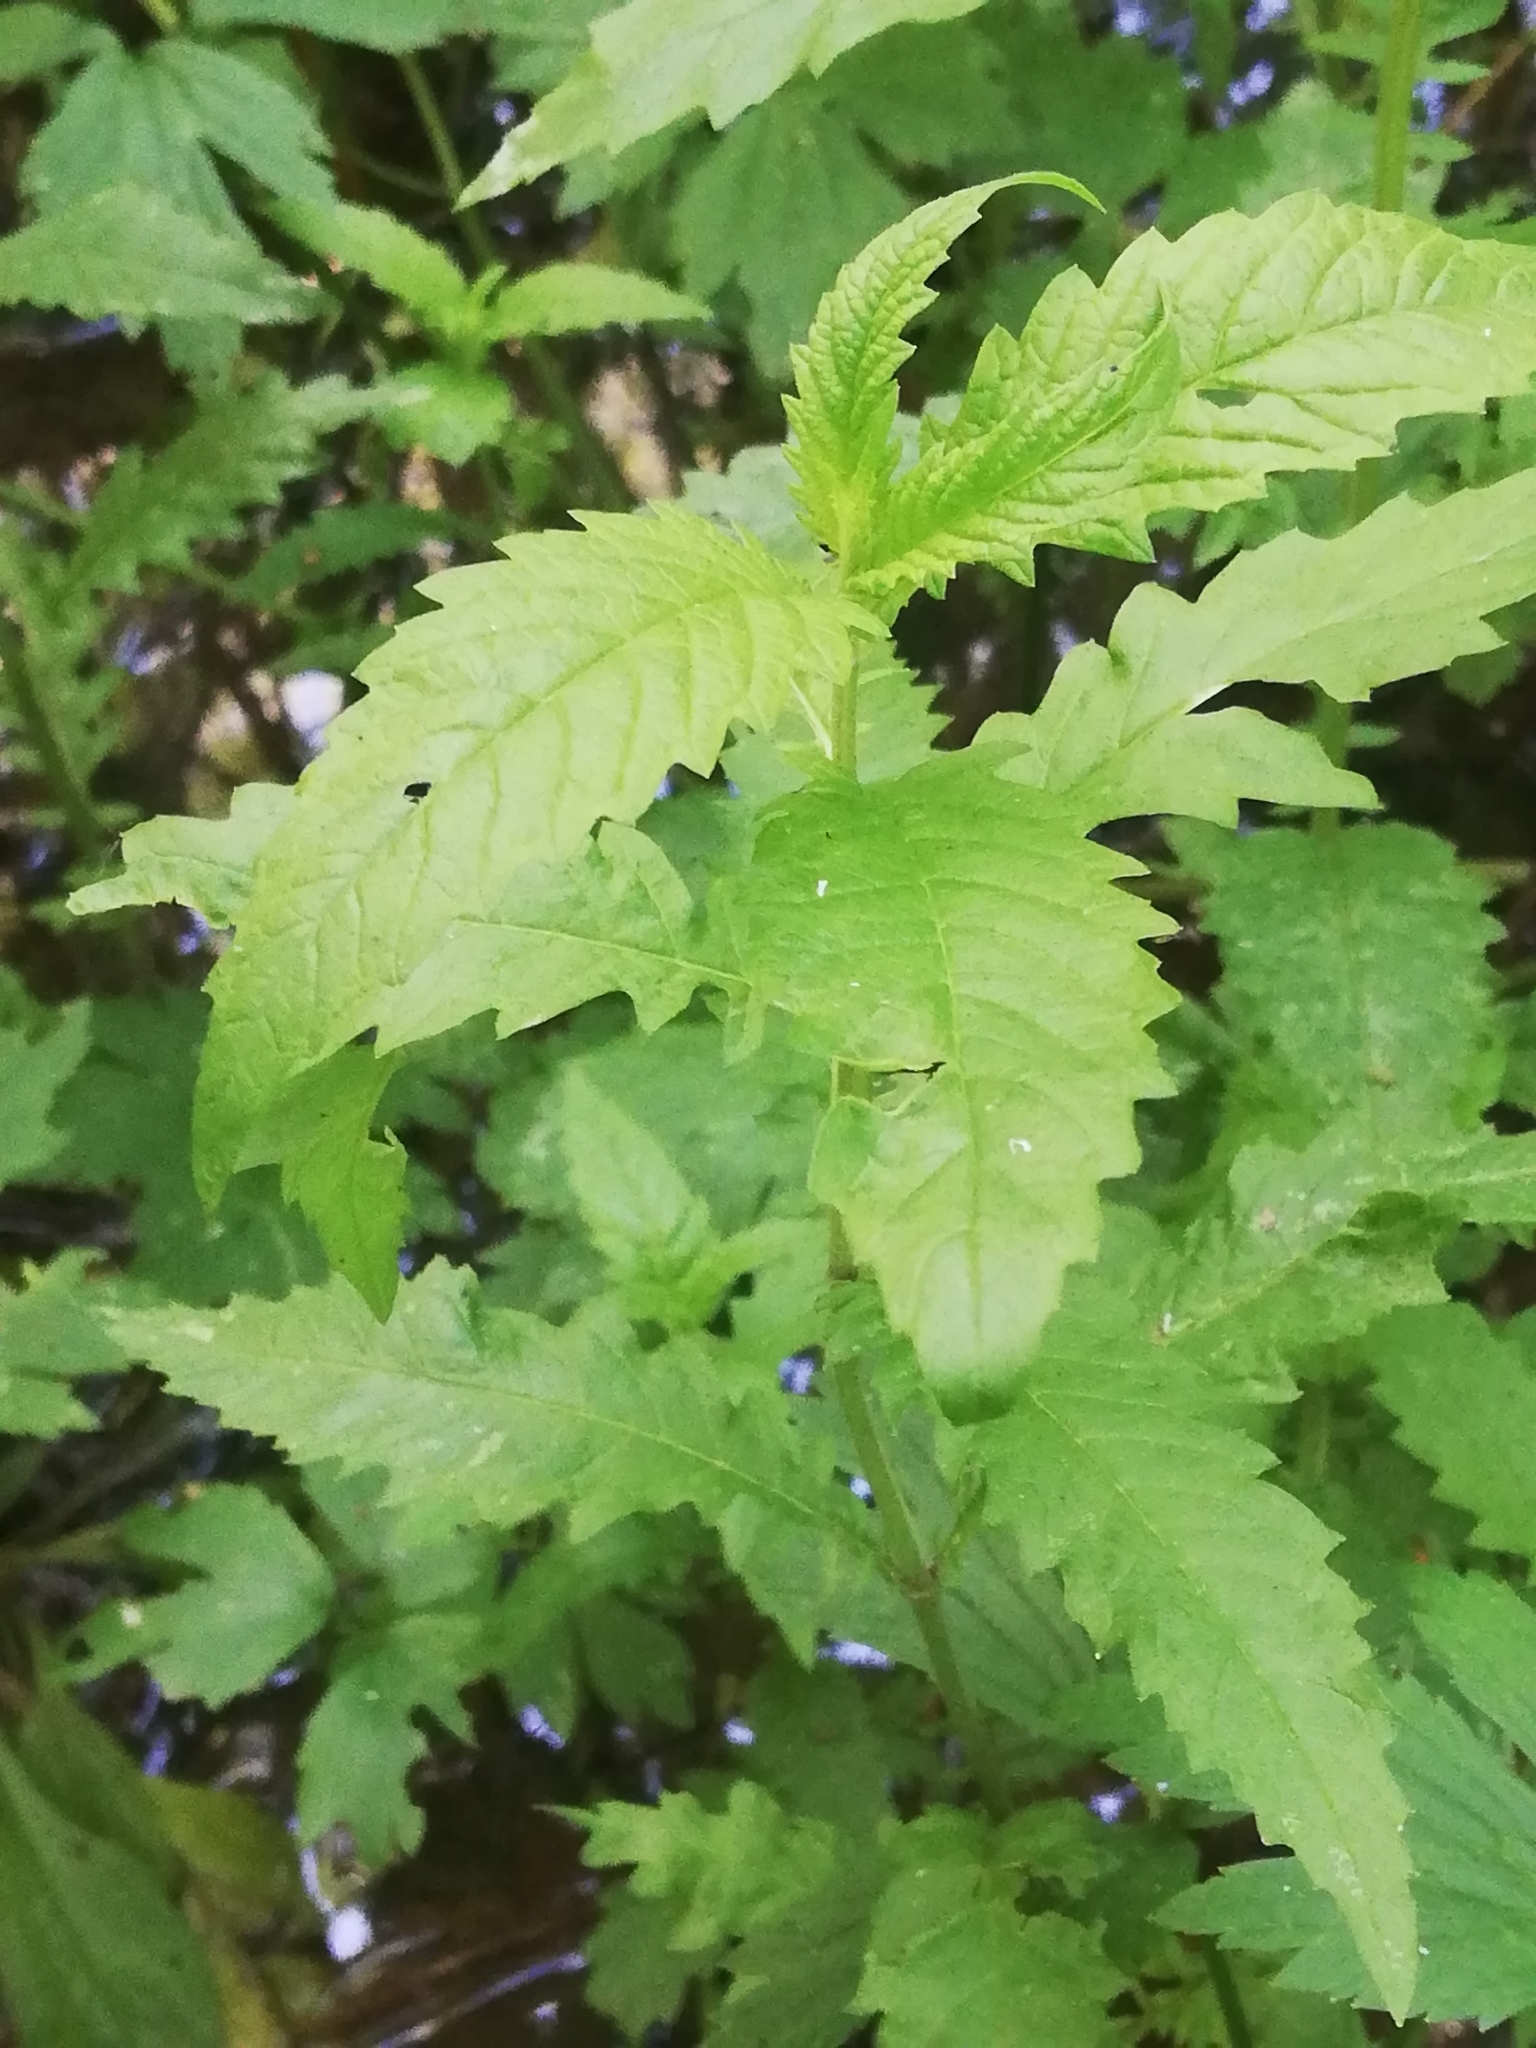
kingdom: Plantae
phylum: Tracheophyta
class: Magnoliopsida
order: Lamiales
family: Lamiaceae
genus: Lycopus
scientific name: Lycopus europaeus
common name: European bugleweed
